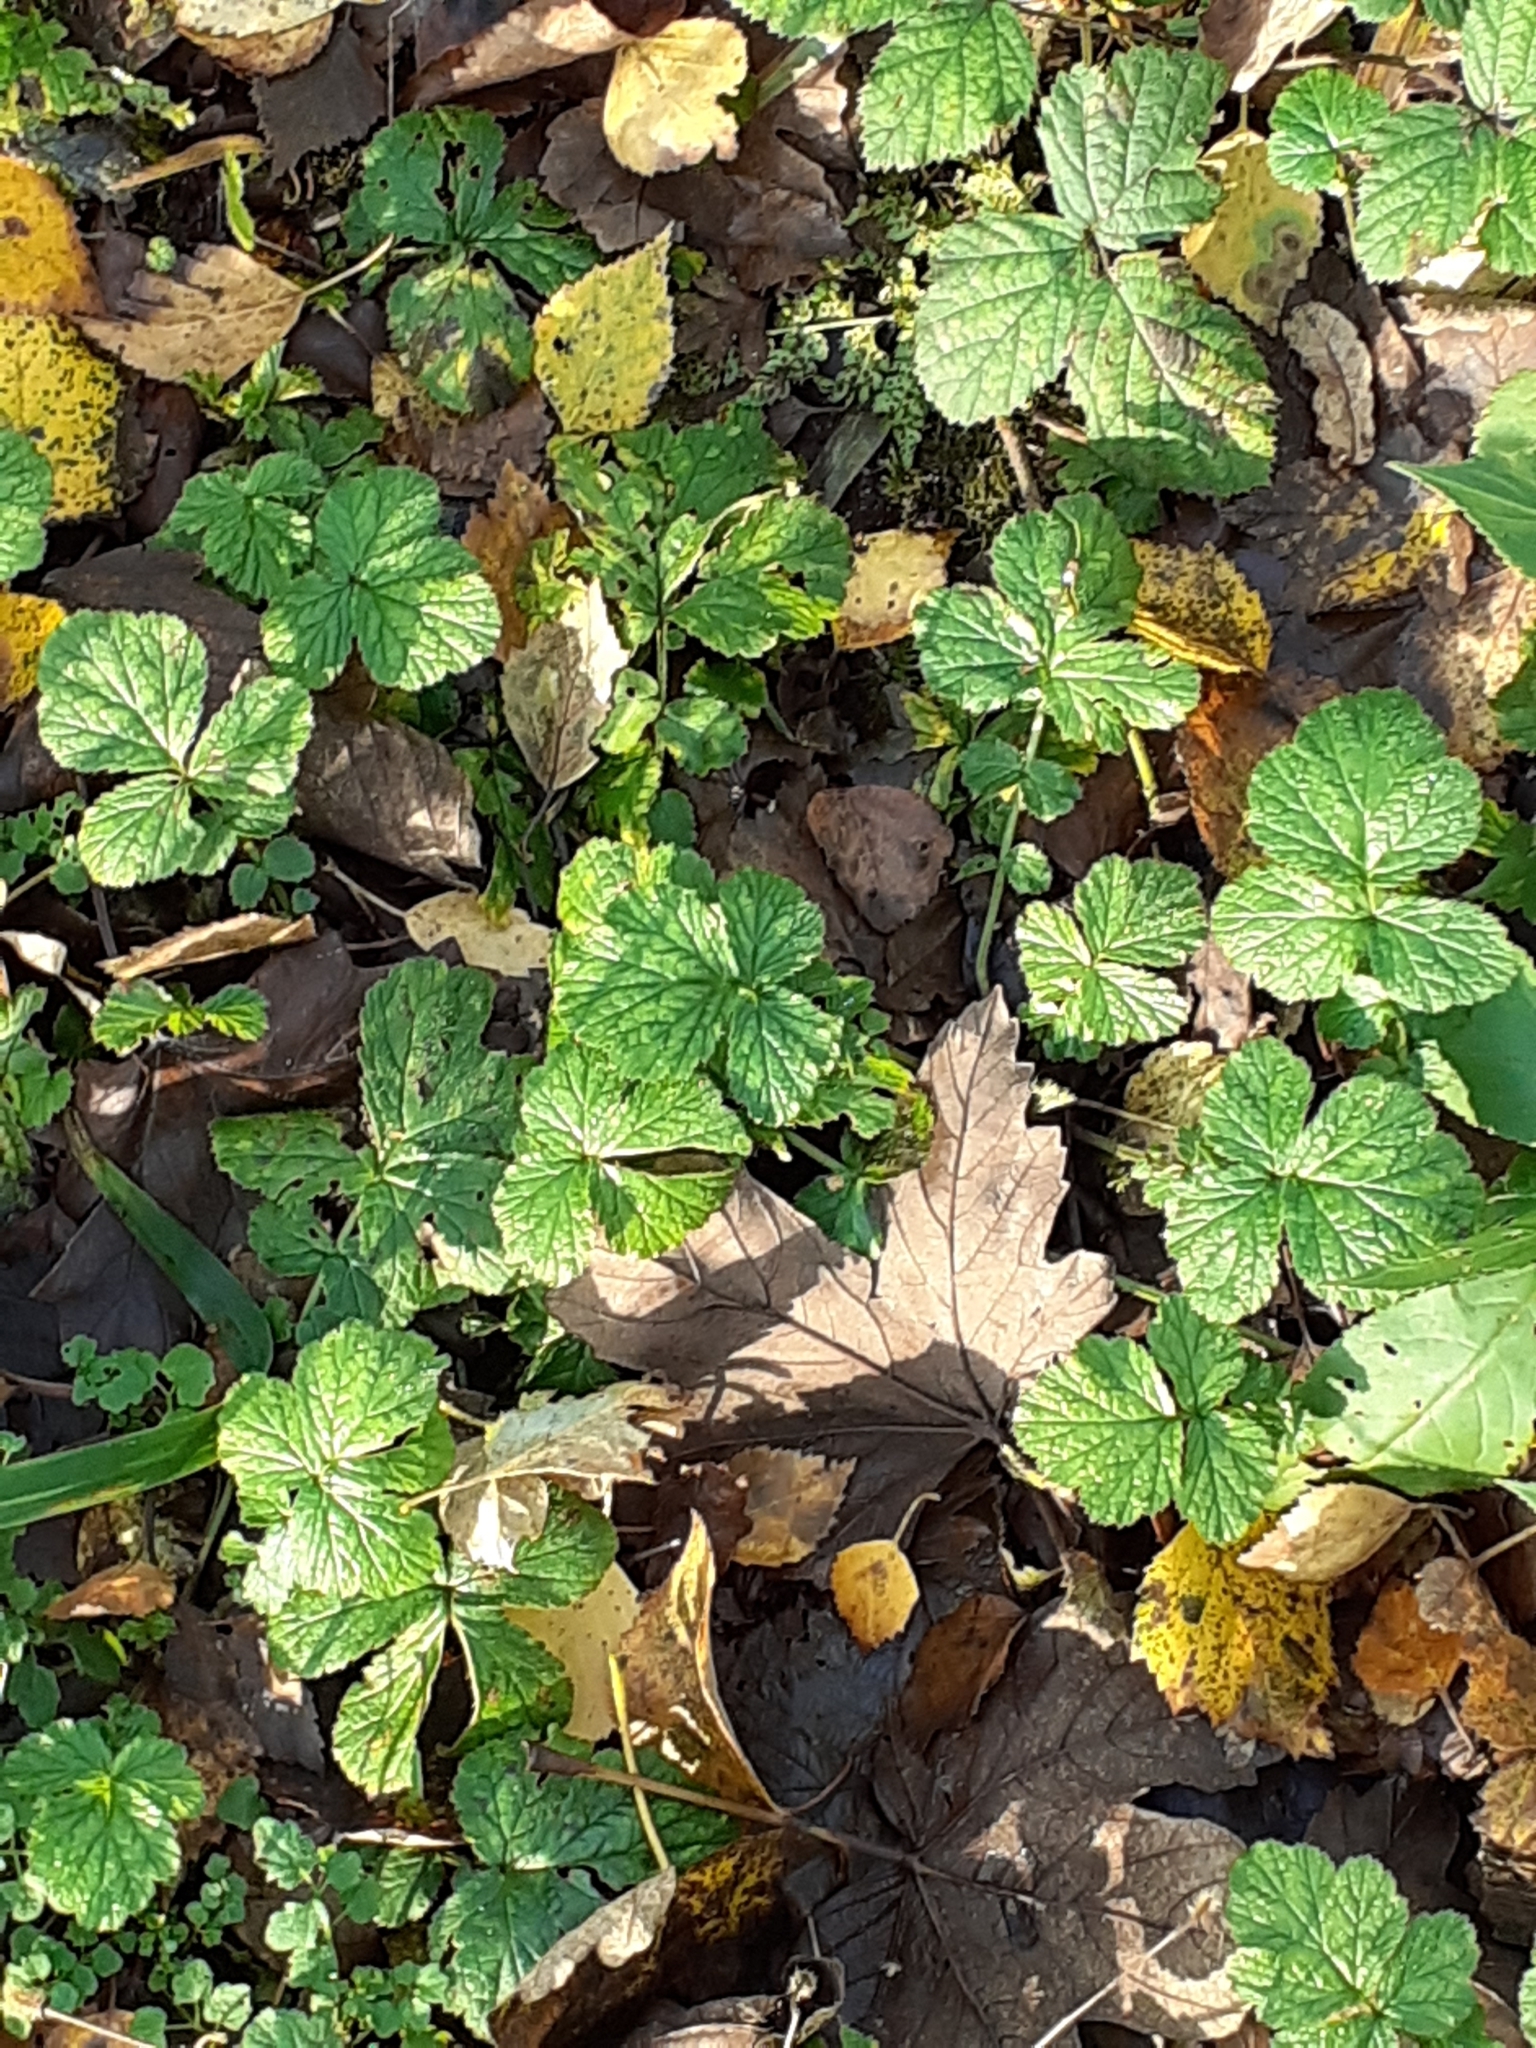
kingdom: Plantae
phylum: Tracheophyta
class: Magnoliopsida
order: Rosales
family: Rosaceae
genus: Geum
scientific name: Geum urbanum
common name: Wood avens
